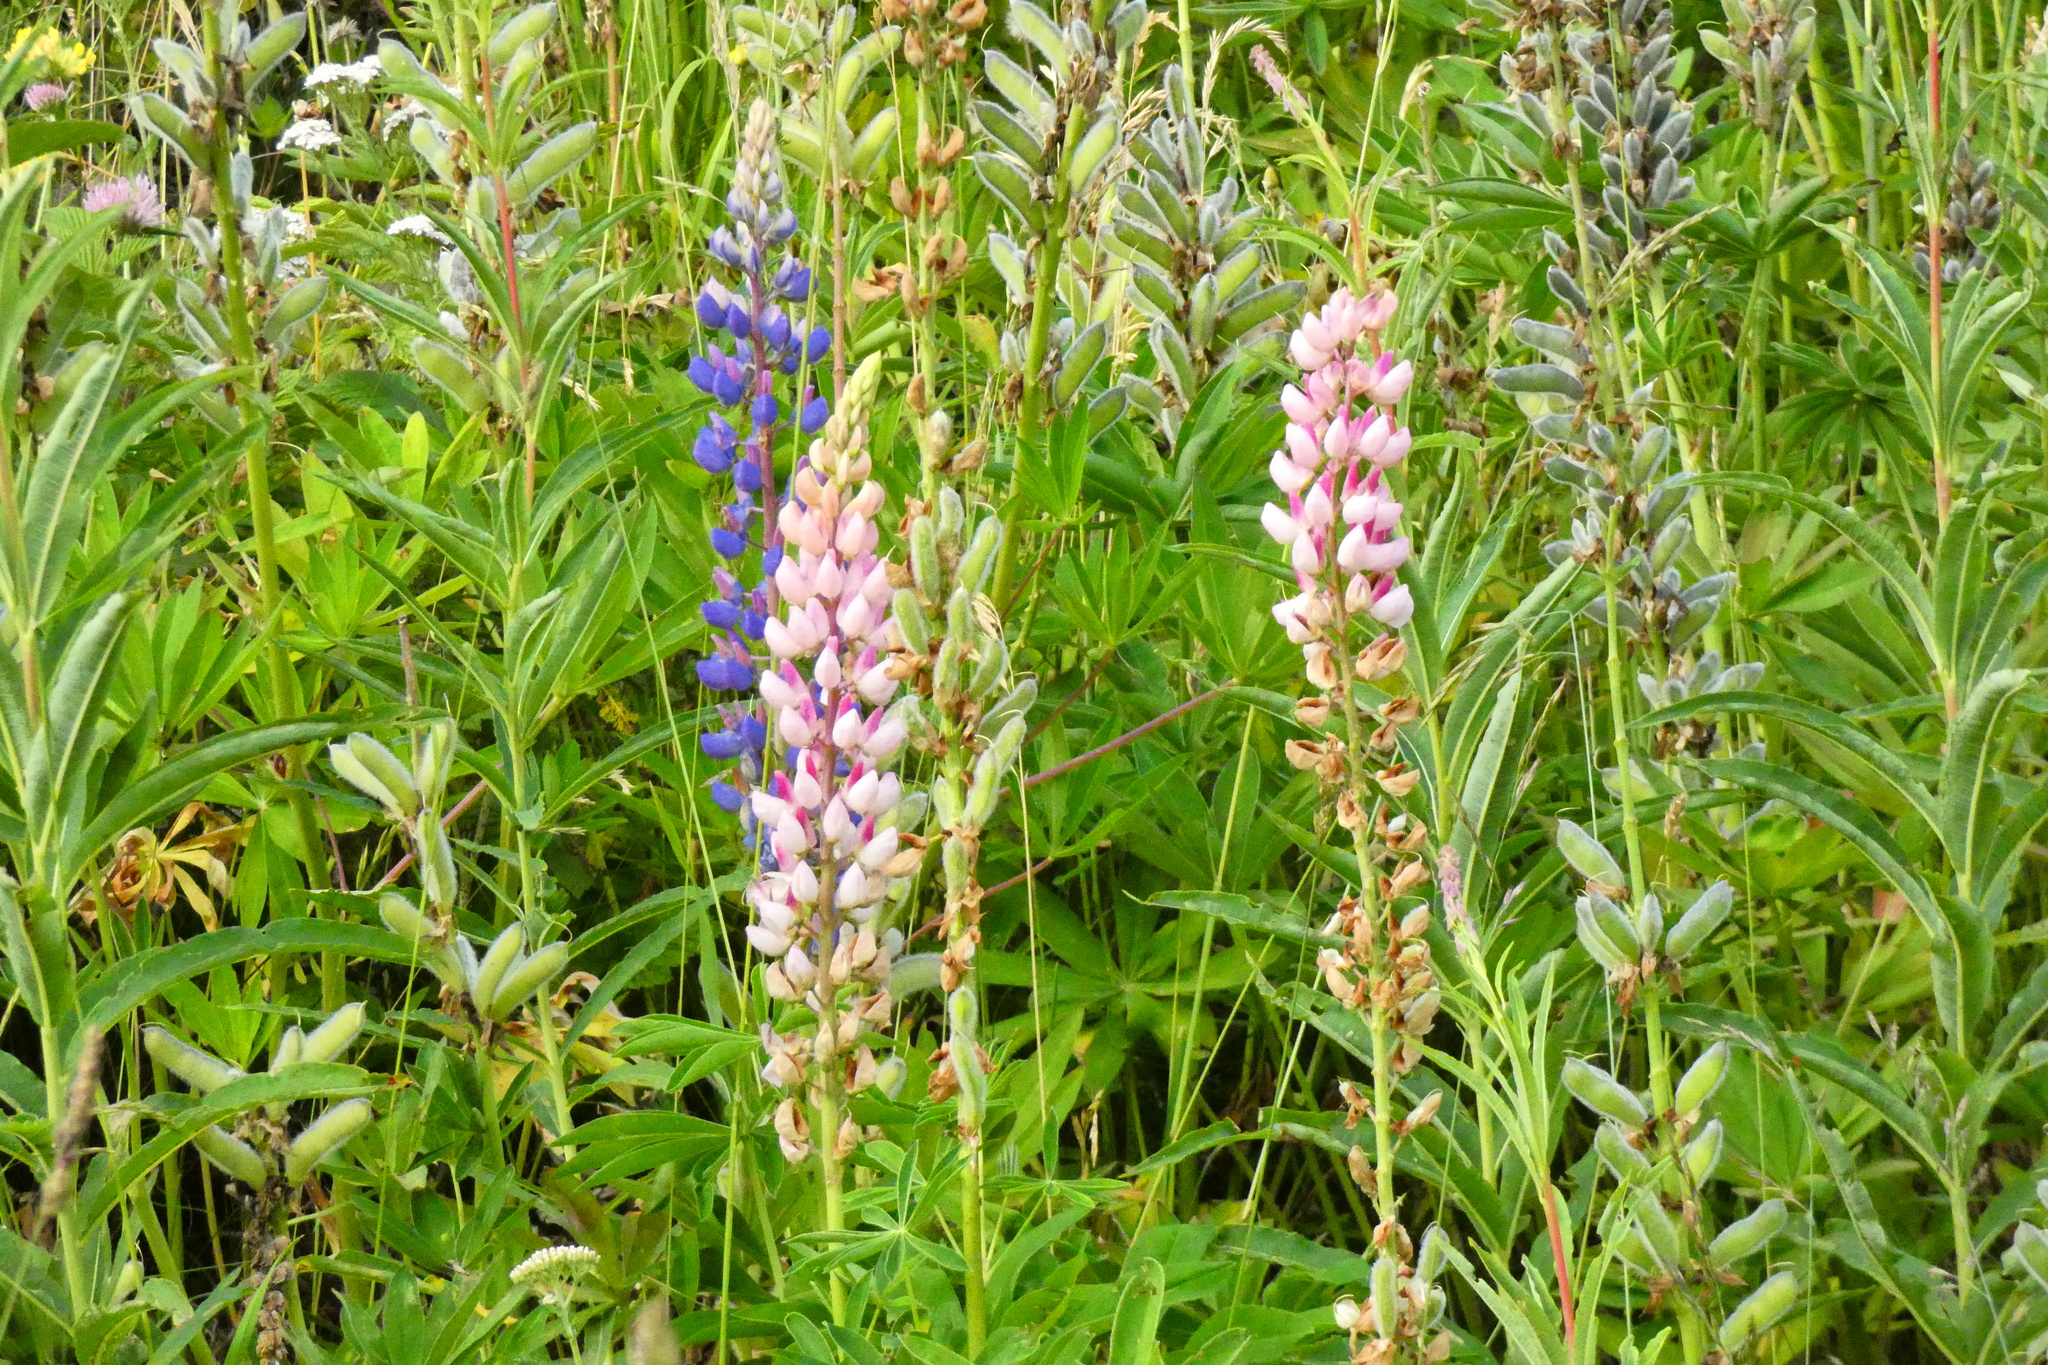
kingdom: Plantae
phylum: Tracheophyta
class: Magnoliopsida
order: Fabales
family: Fabaceae
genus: Lupinus
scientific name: Lupinus polyphyllus
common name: Garden lupin
